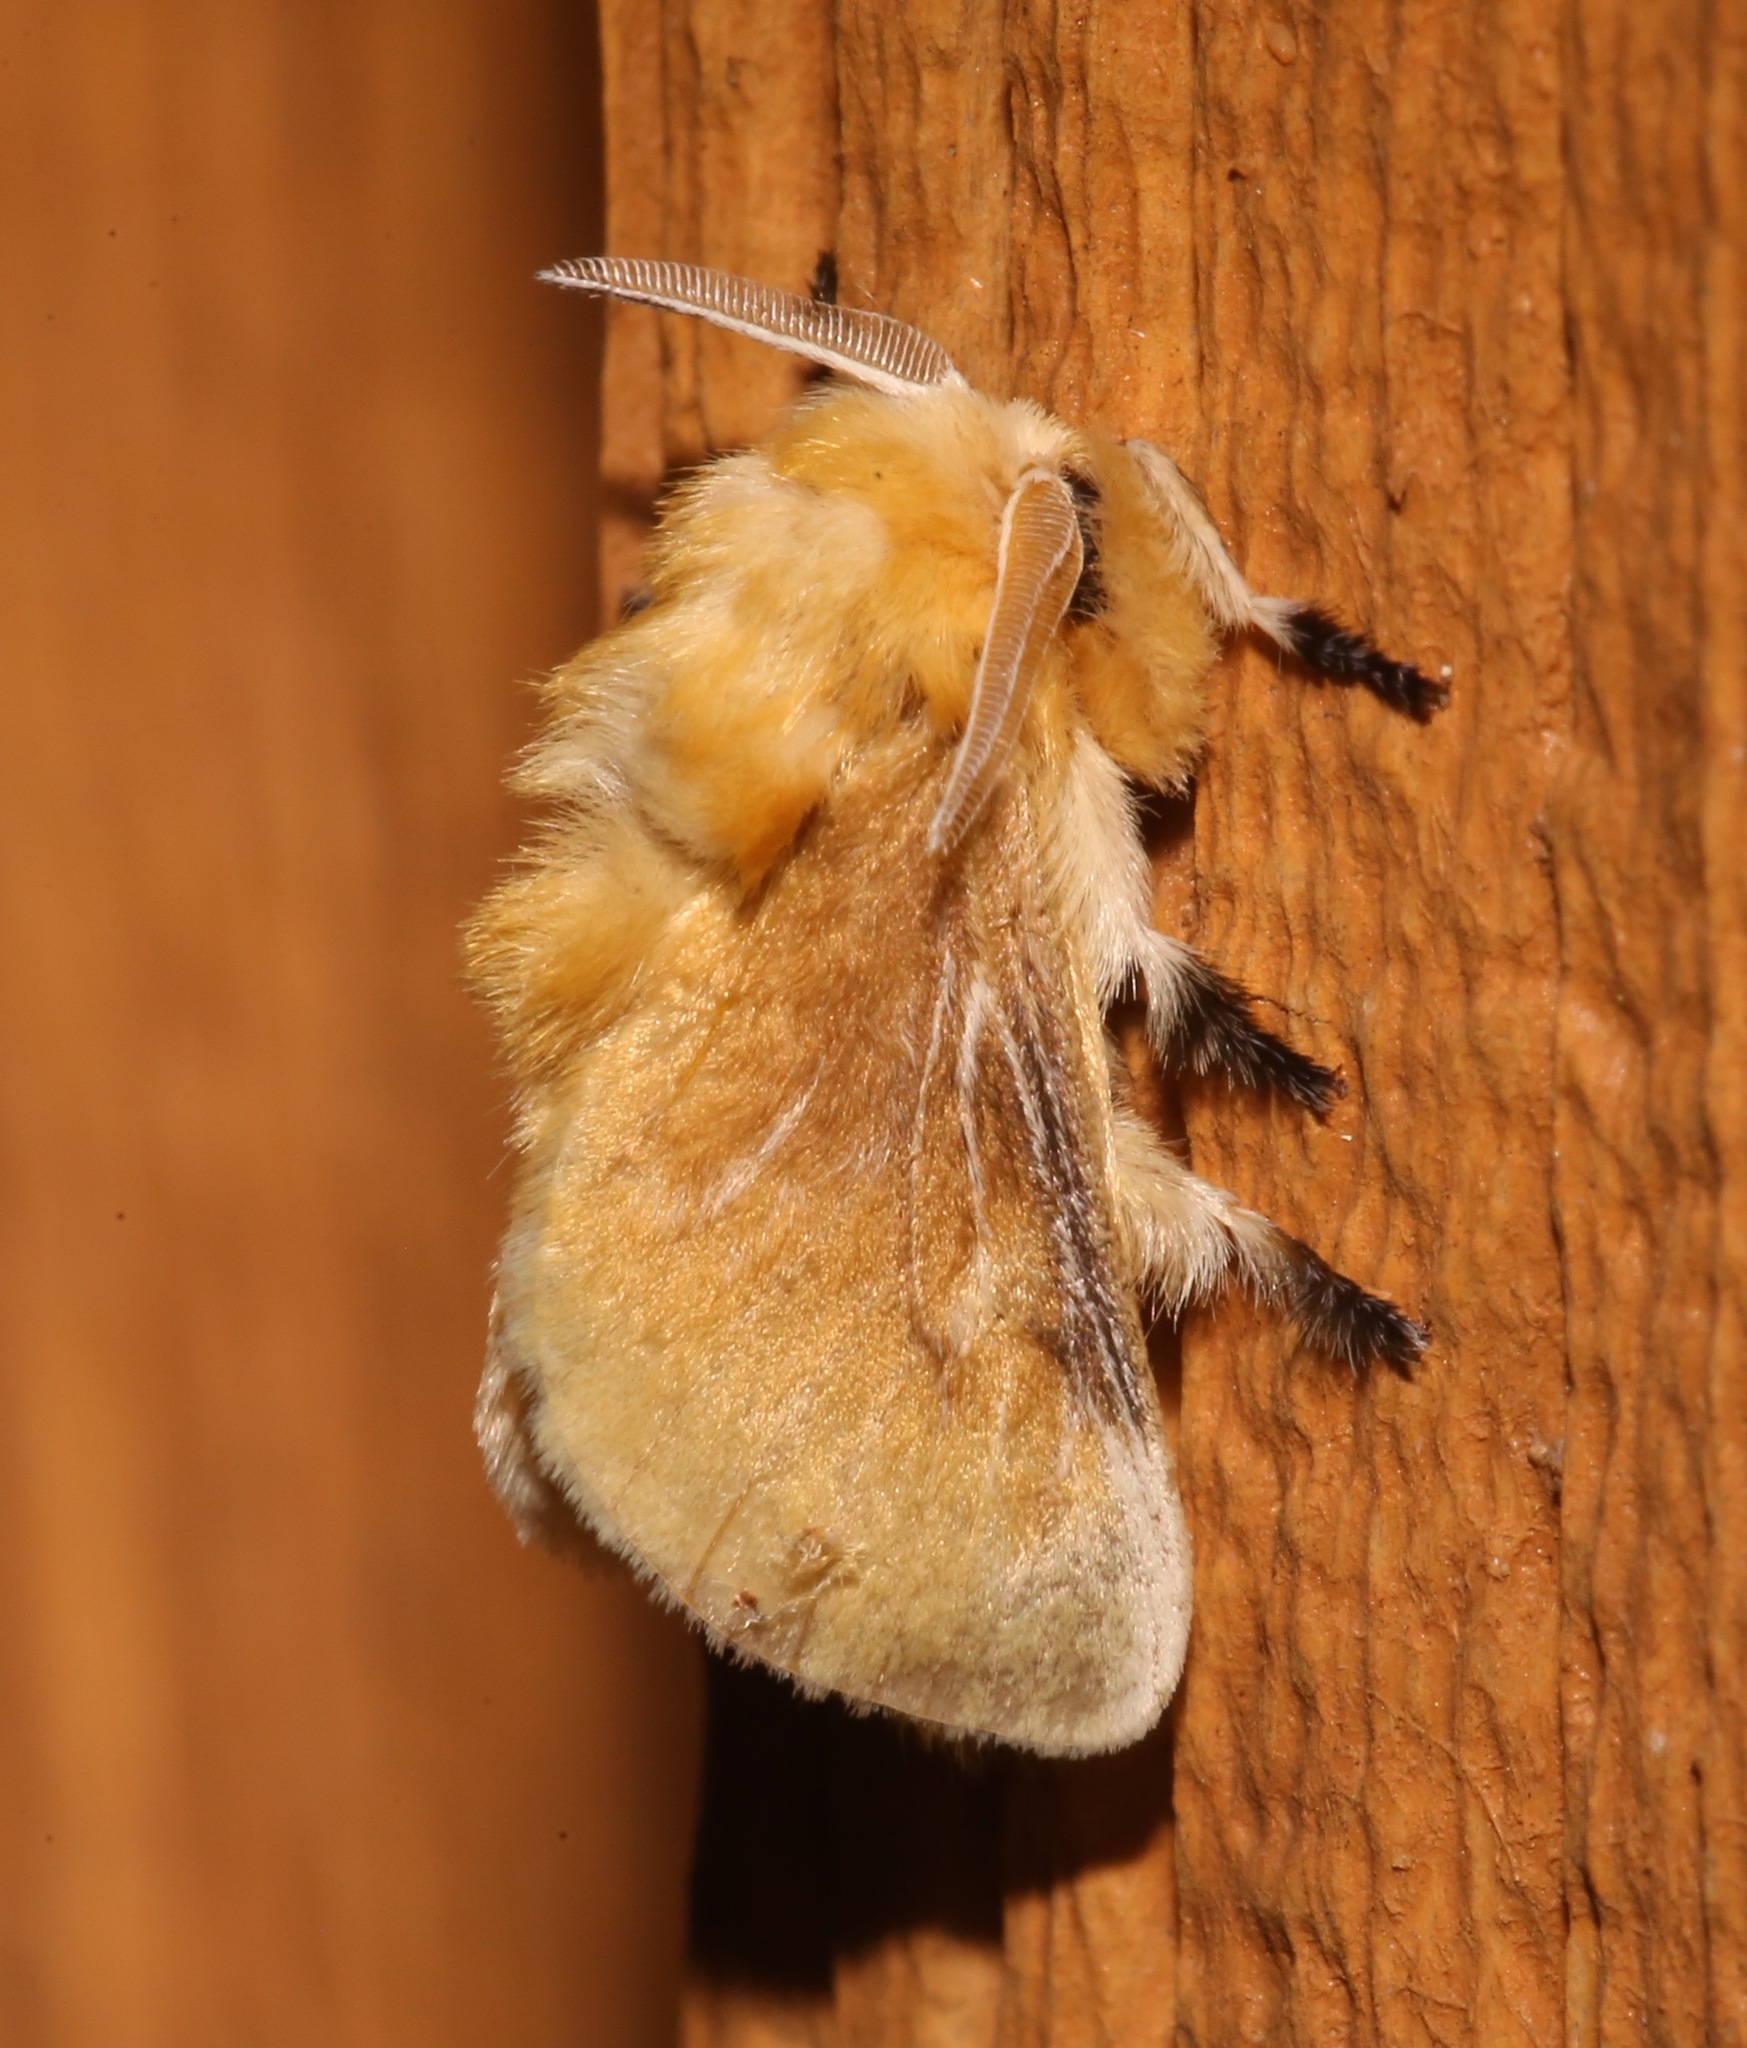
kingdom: Animalia
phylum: Arthropoda
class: Insecta
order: Lepidoptera
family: Megalopygidae
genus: Megalopyge
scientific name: Megalopyge opercularis
